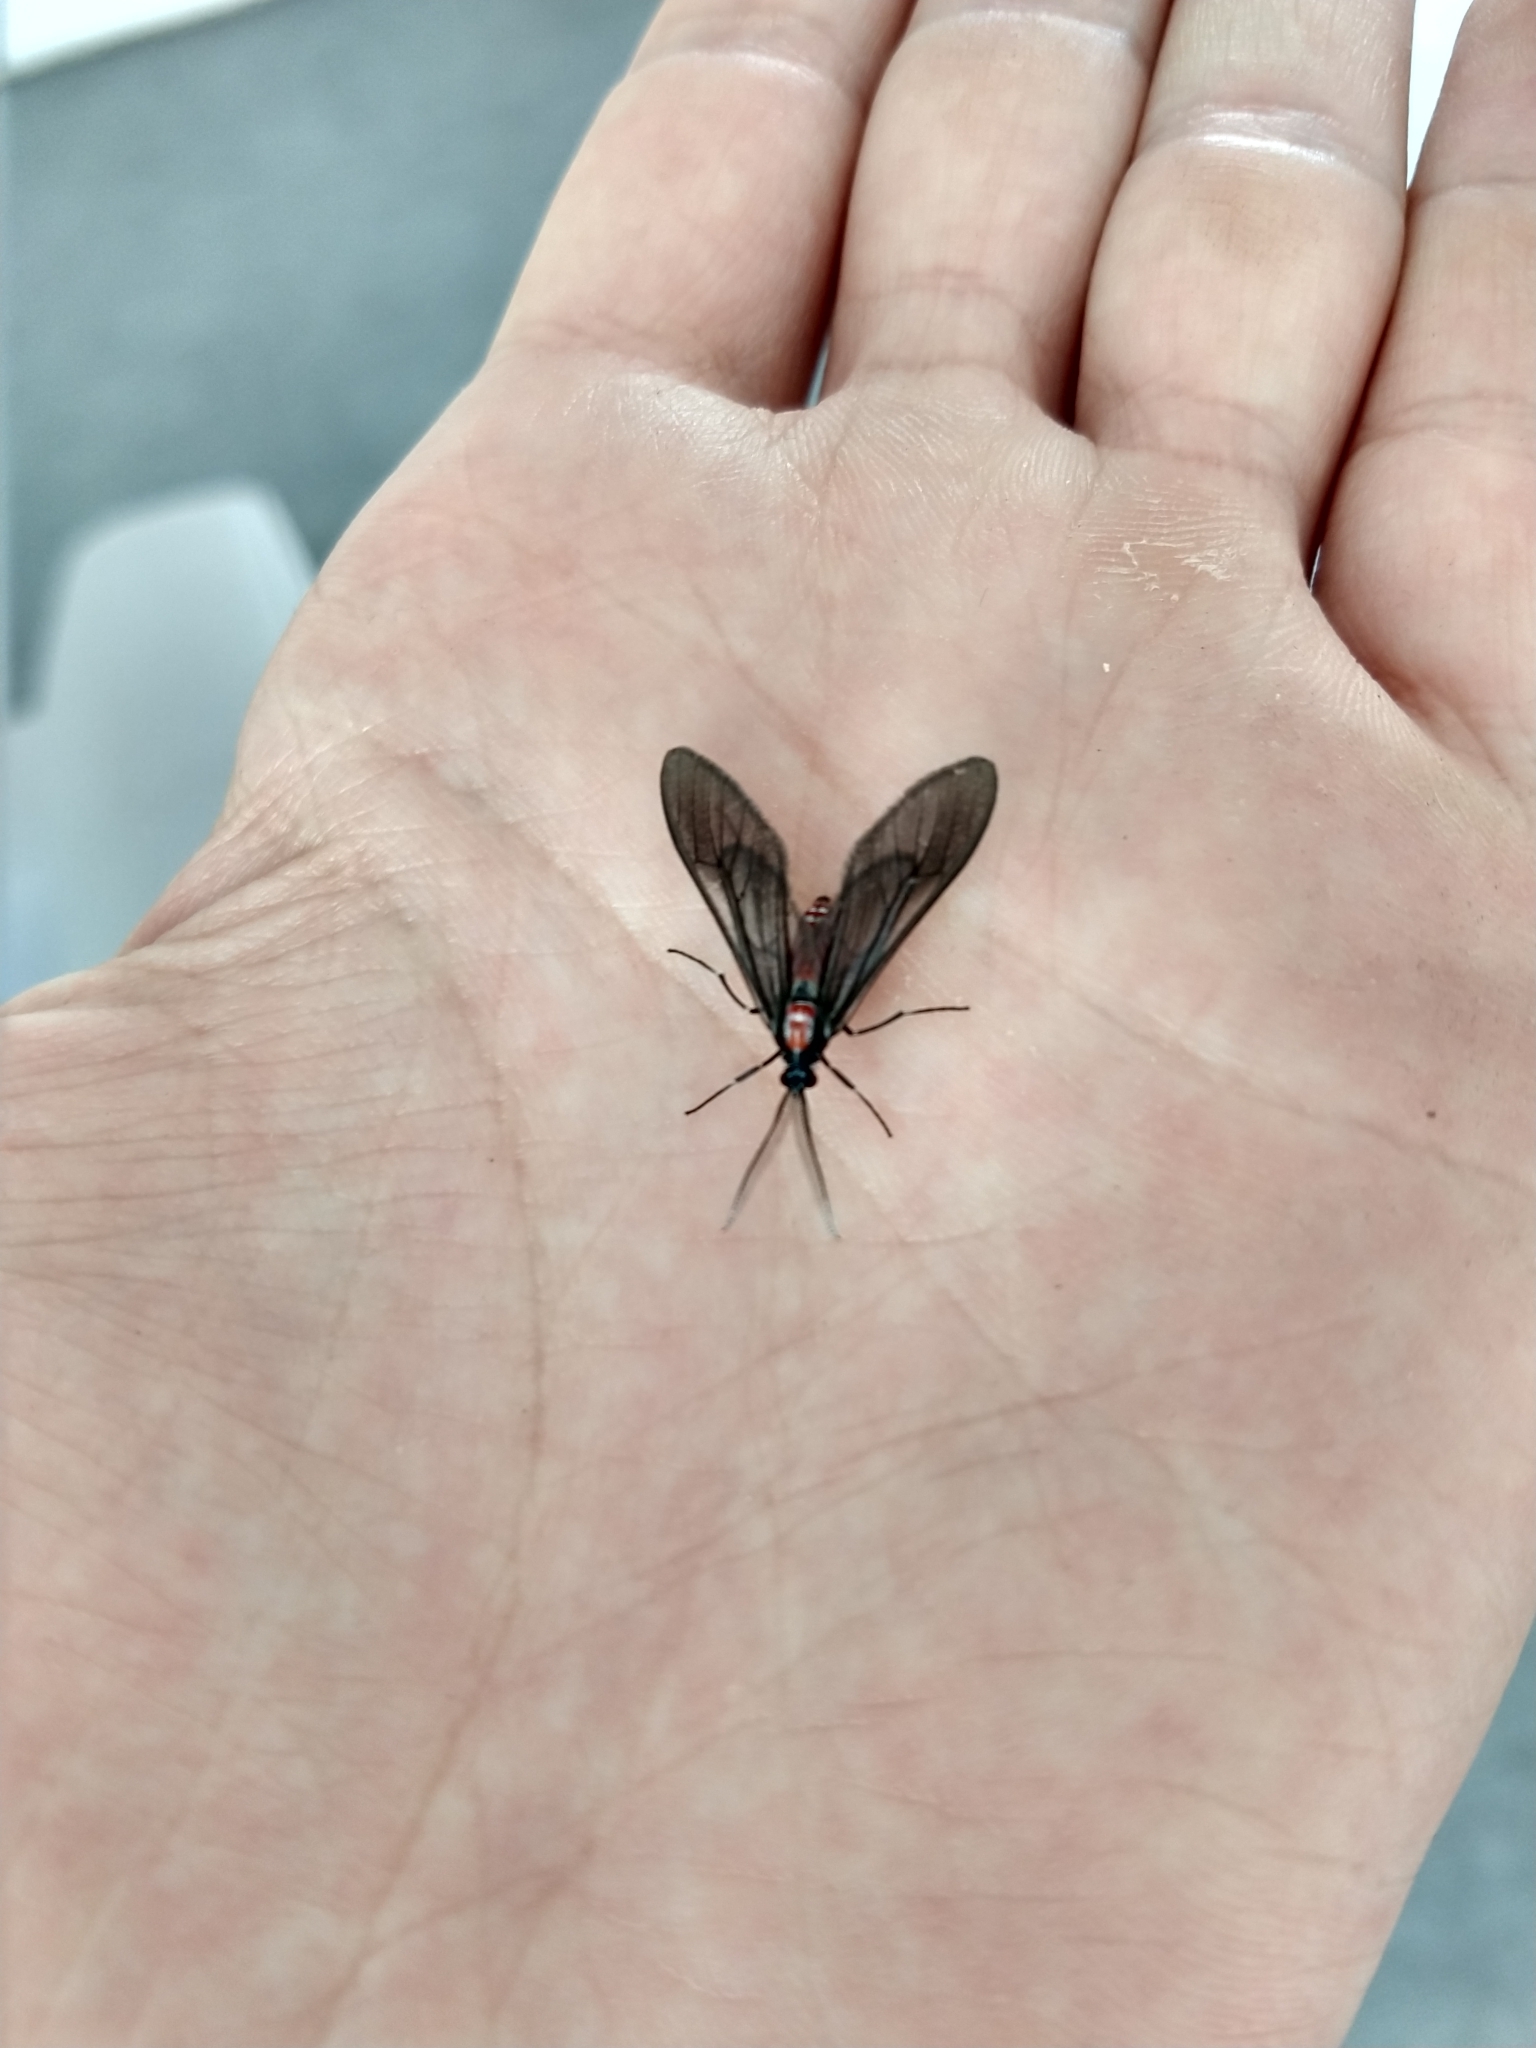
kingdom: Animalia
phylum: Arthropoda
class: Insecta
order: Lepidoptera
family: Erebidae
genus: Saurita
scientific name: Saurita mecrida
